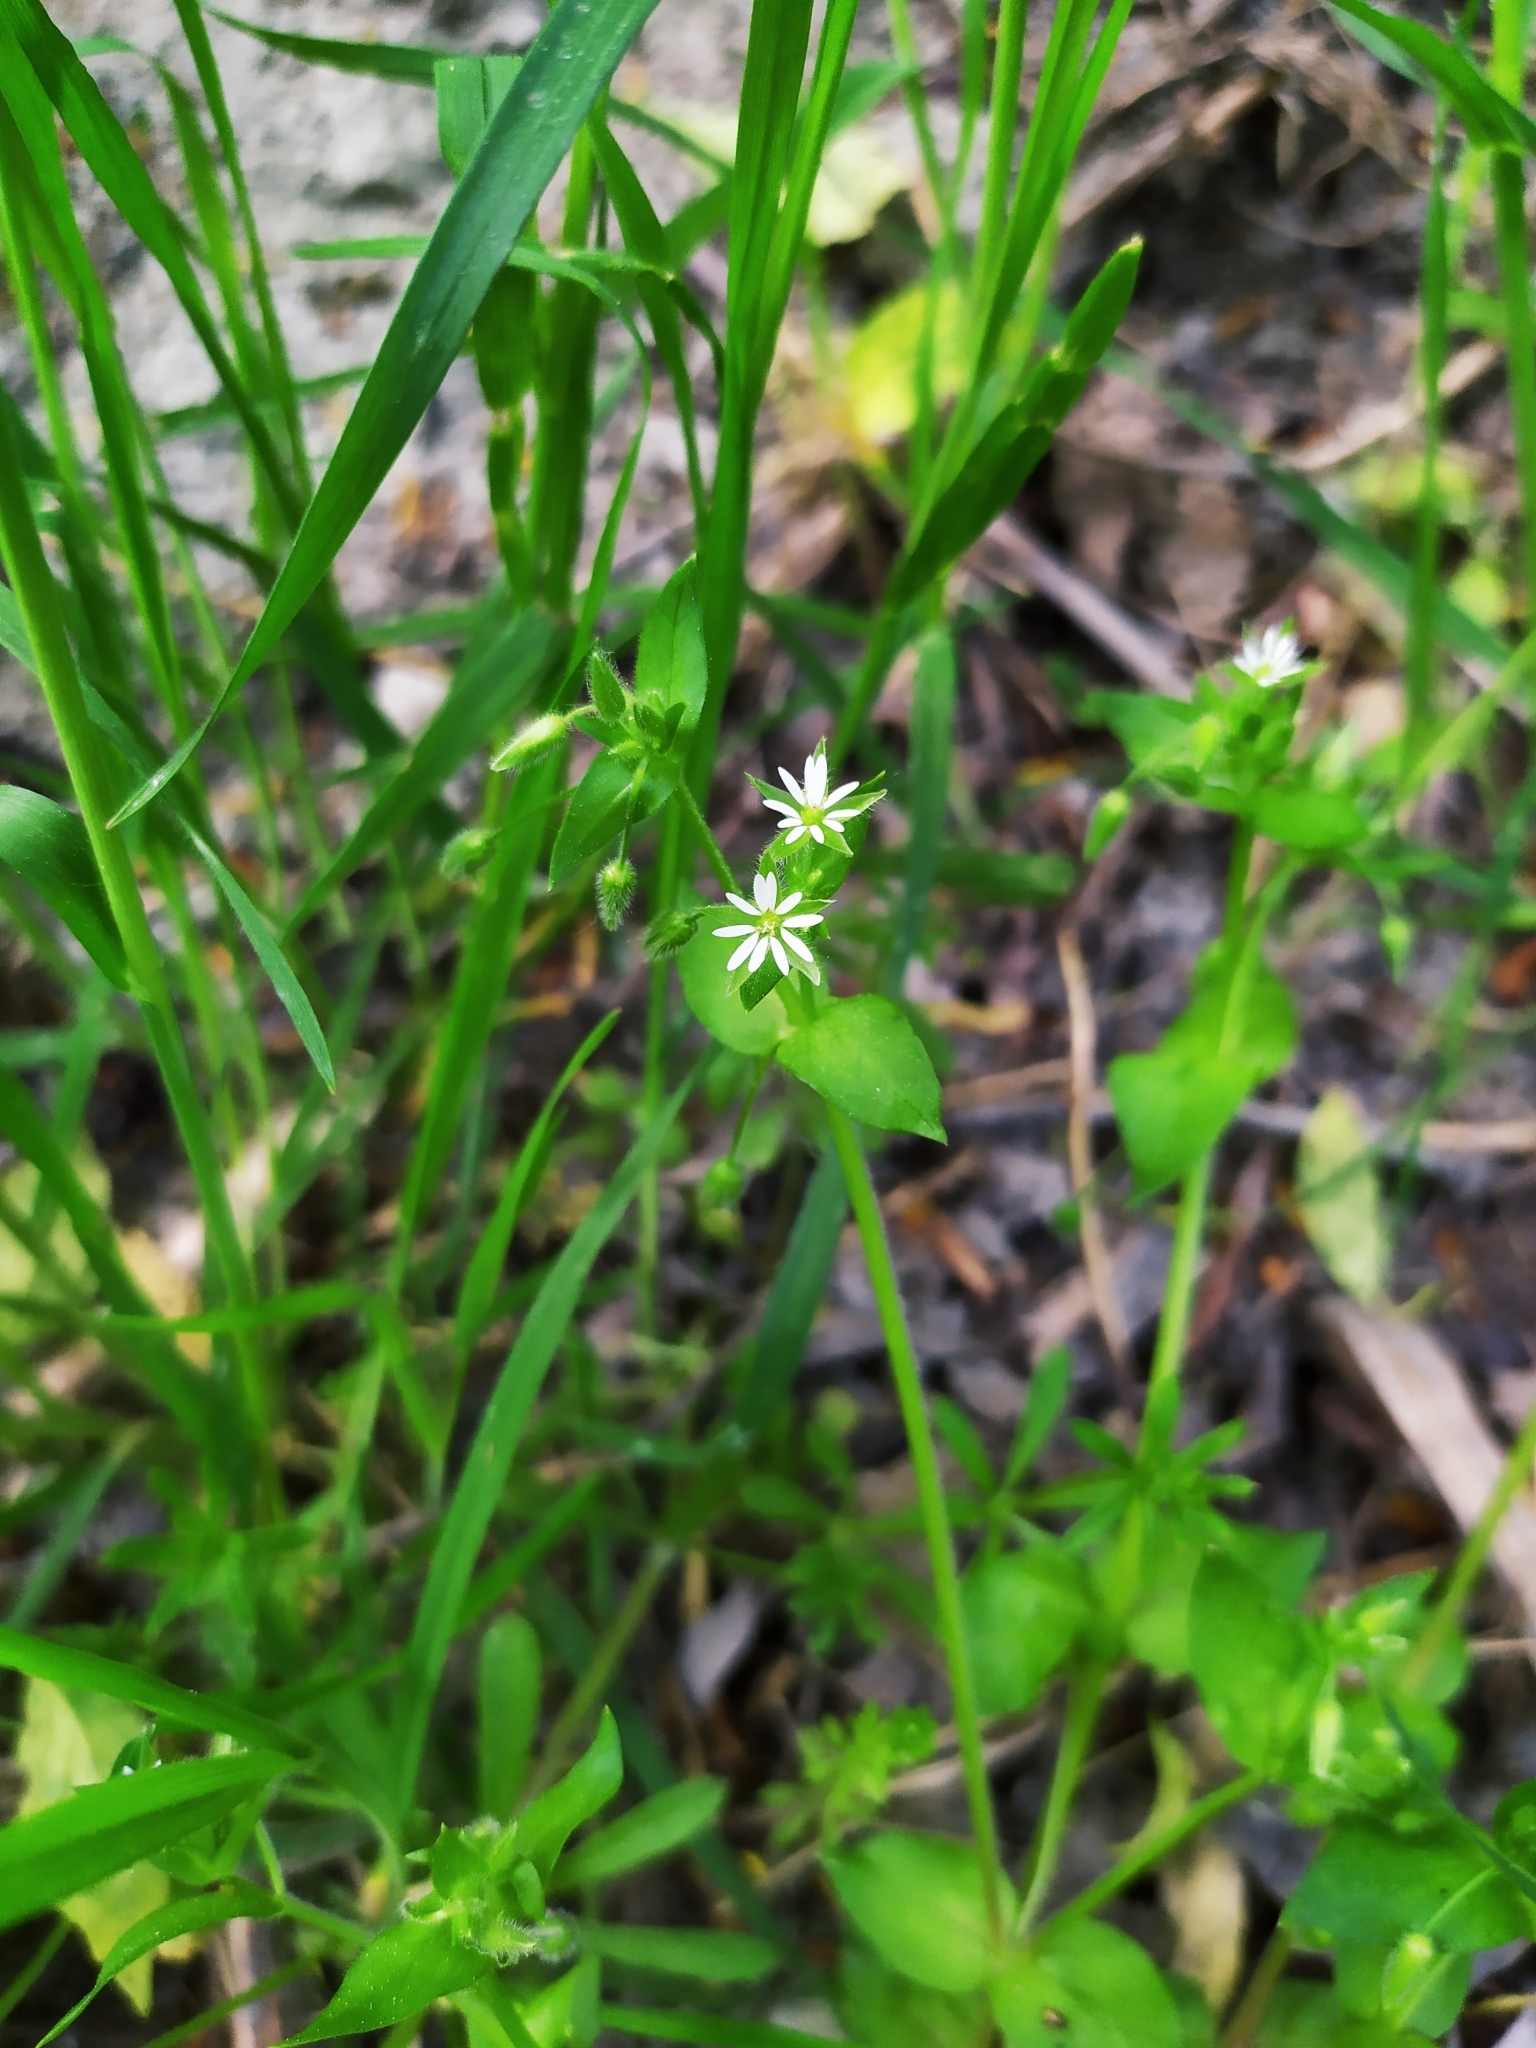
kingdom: Plantae
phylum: Tracheophyta
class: Magnoliopsida
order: Caryophyllales
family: Caryophyllaceae
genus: Stellaria
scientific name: Stellaria media
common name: Common chickweed
